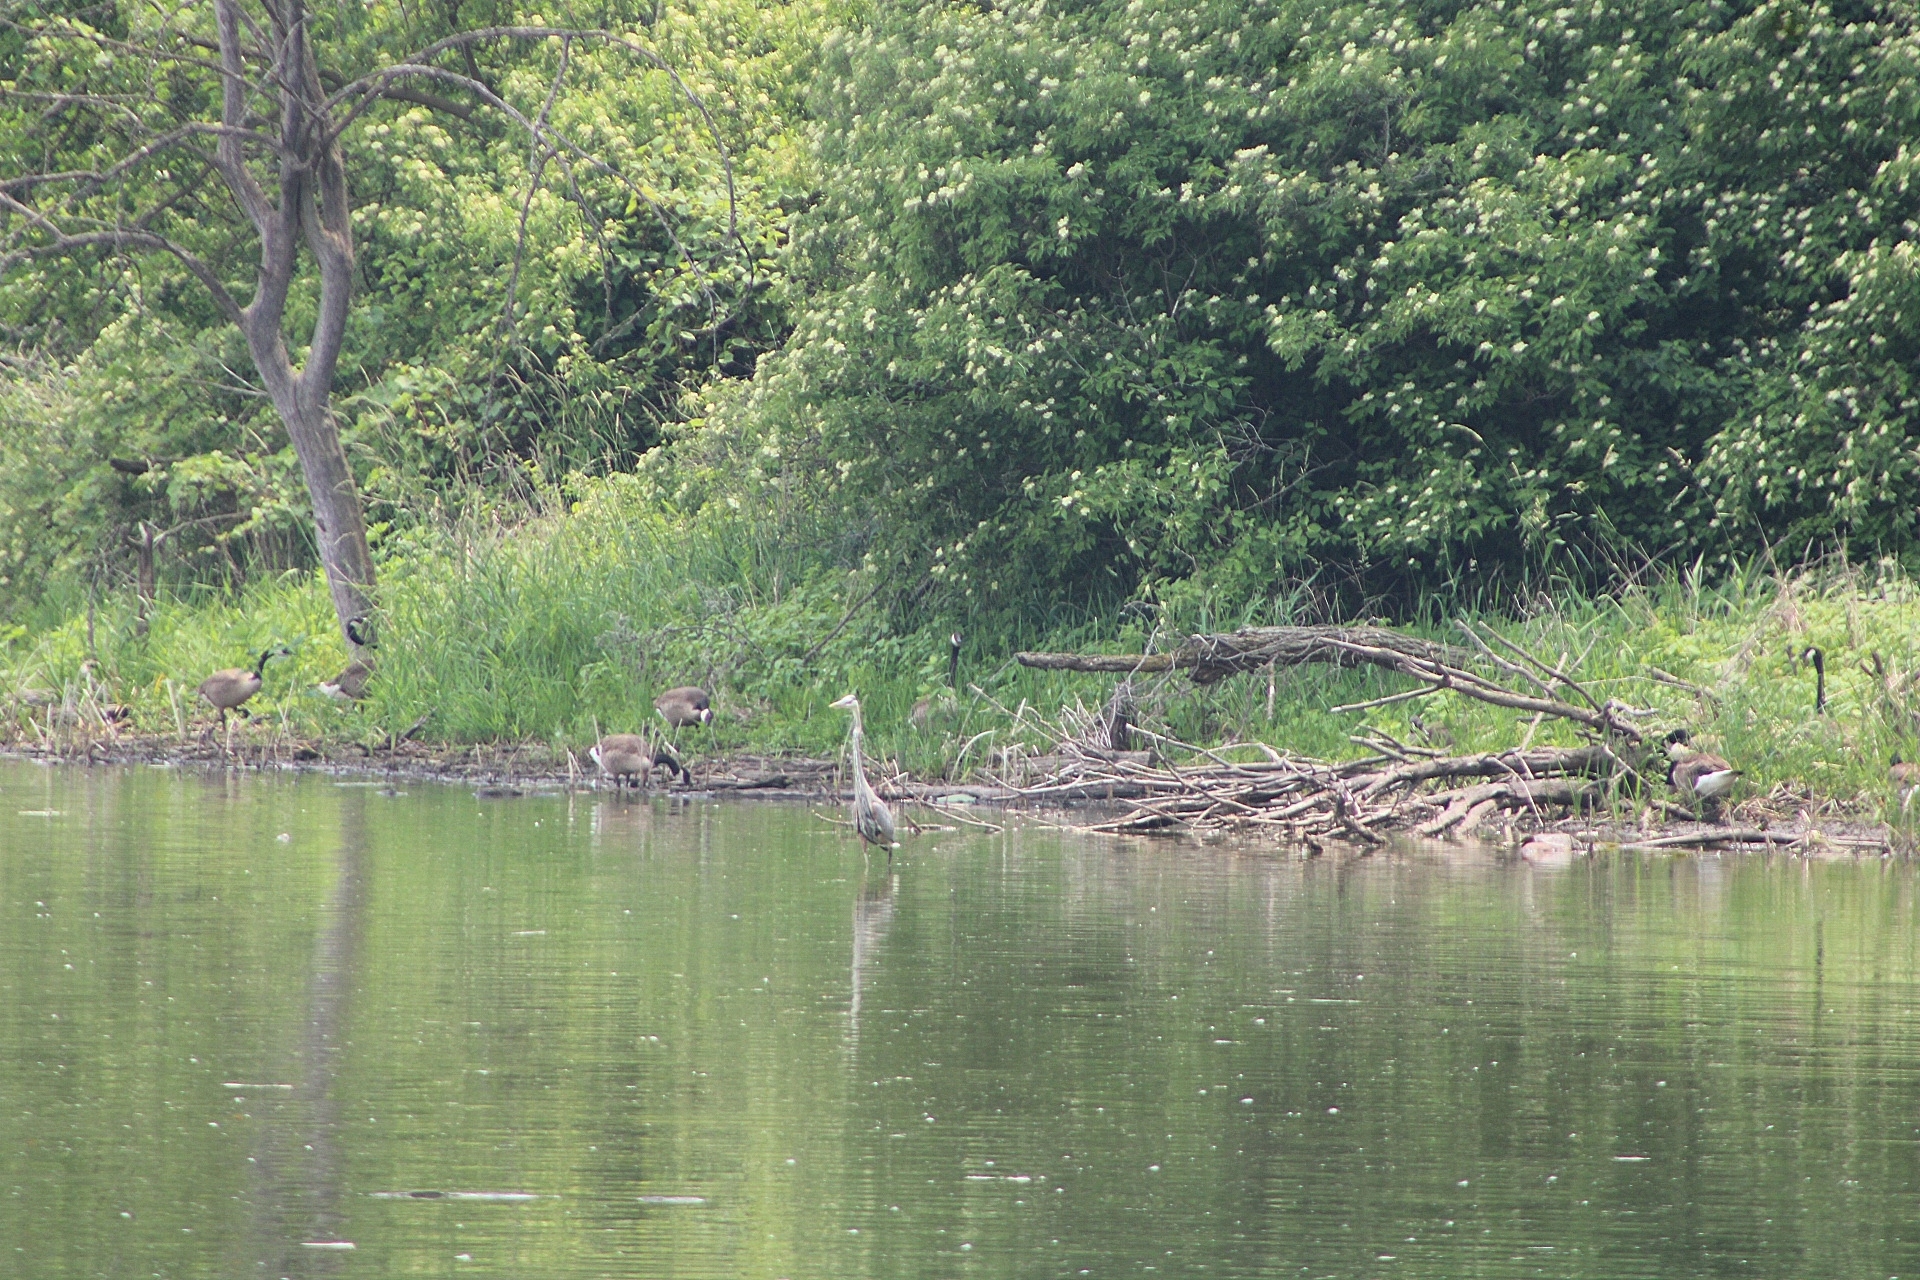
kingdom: Animalia
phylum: Chordata
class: Aves
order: Pelecaniformes
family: Ardeidae
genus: Ardea
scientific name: Ardea herodias
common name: Great blue heron
